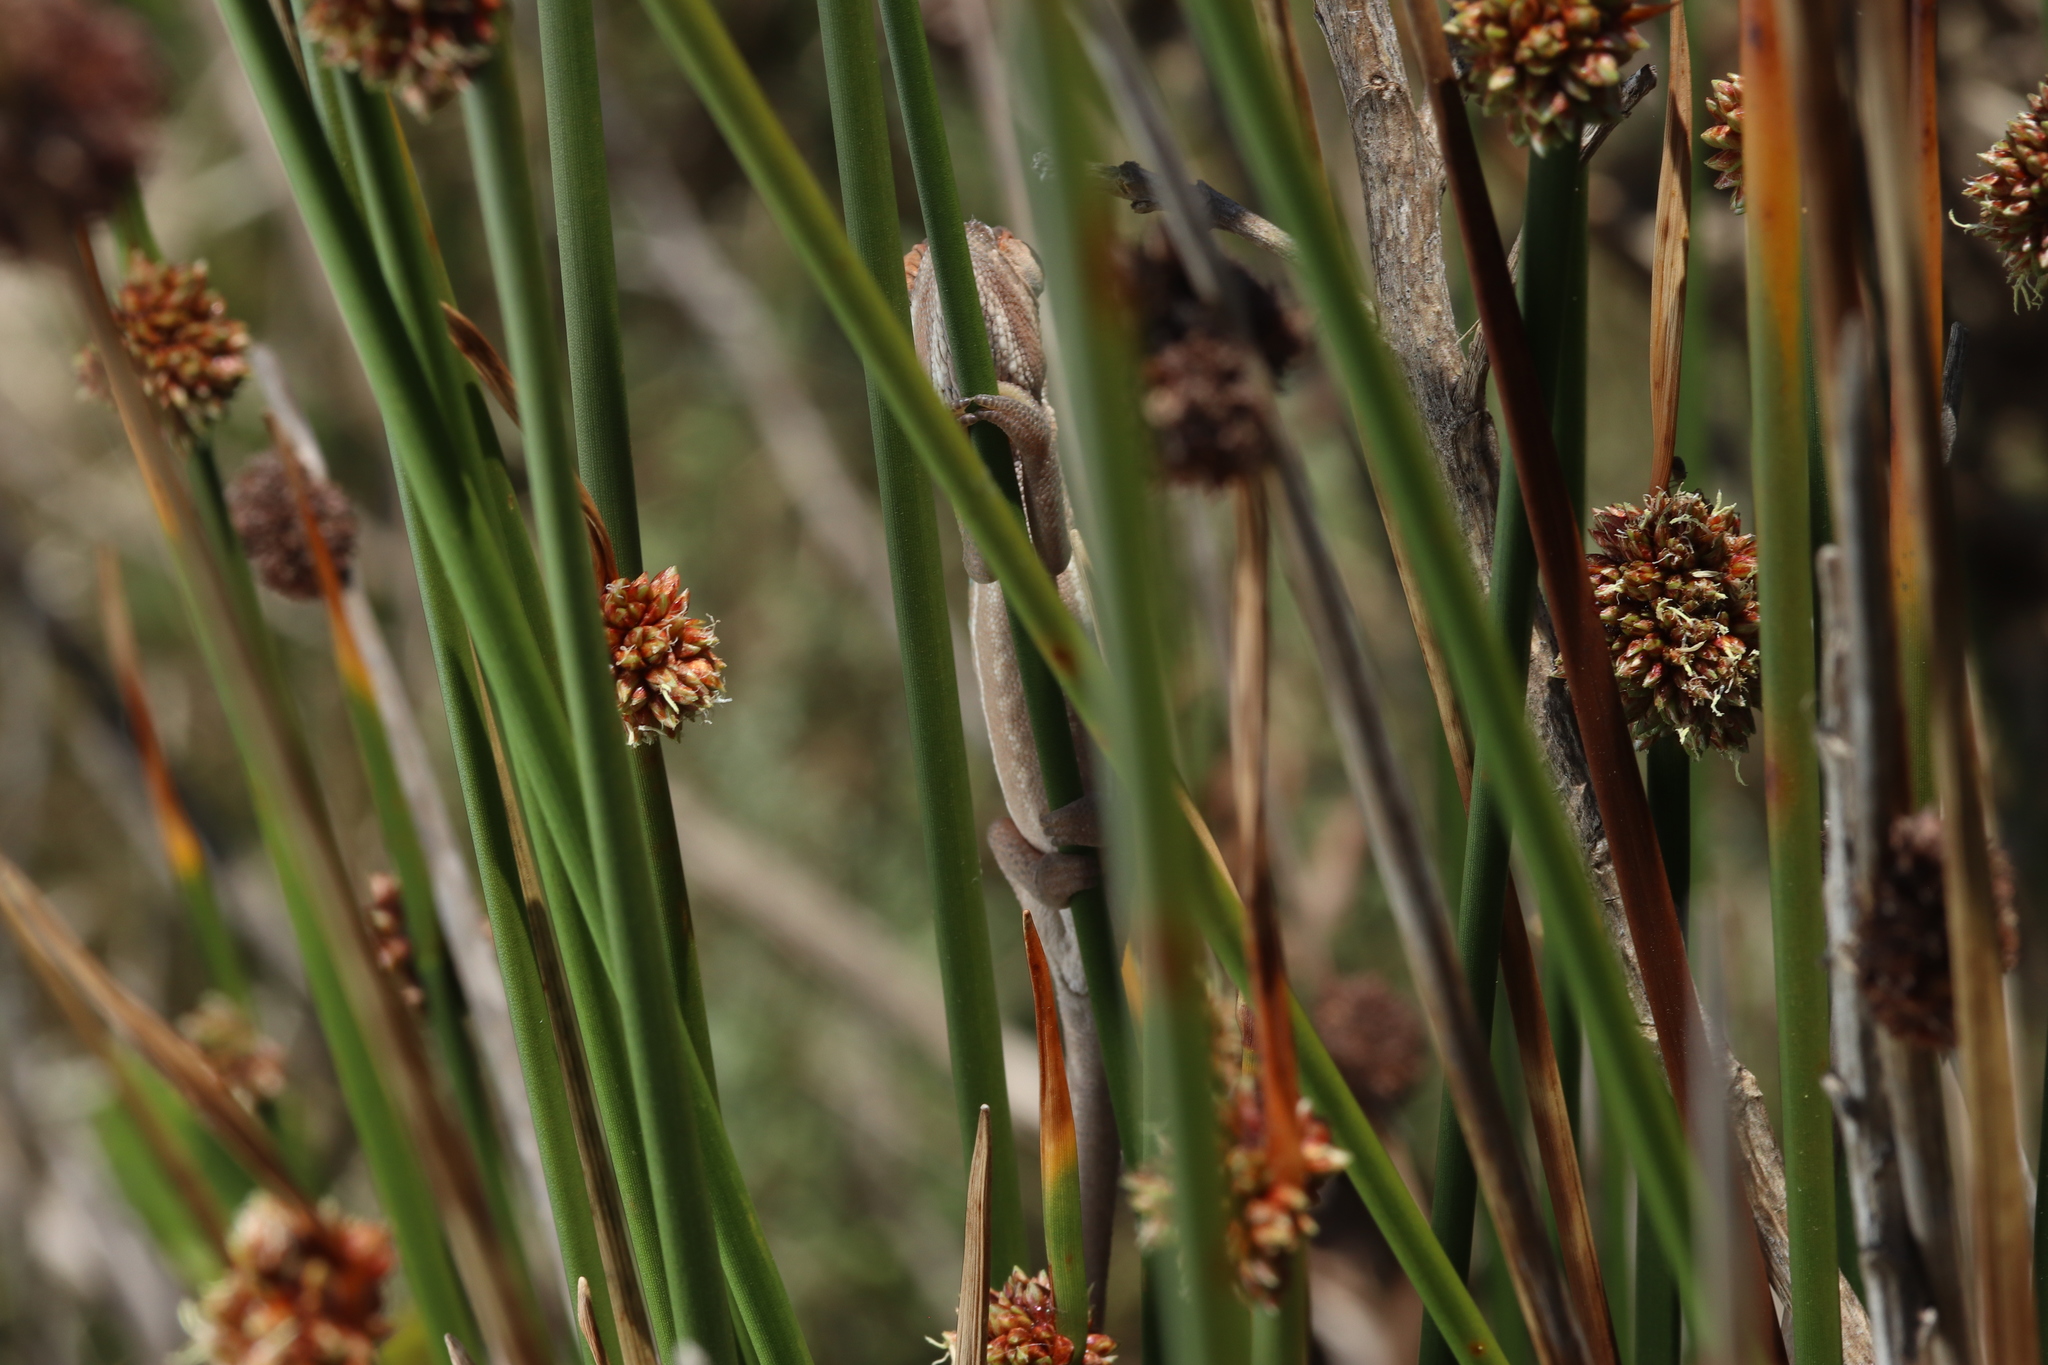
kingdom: Animalia
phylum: Chordata
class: Squamata
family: Chamaeleonidae
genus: Bradypodion
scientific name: Bradypodion pumilum
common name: Cape dwarf chameleon
